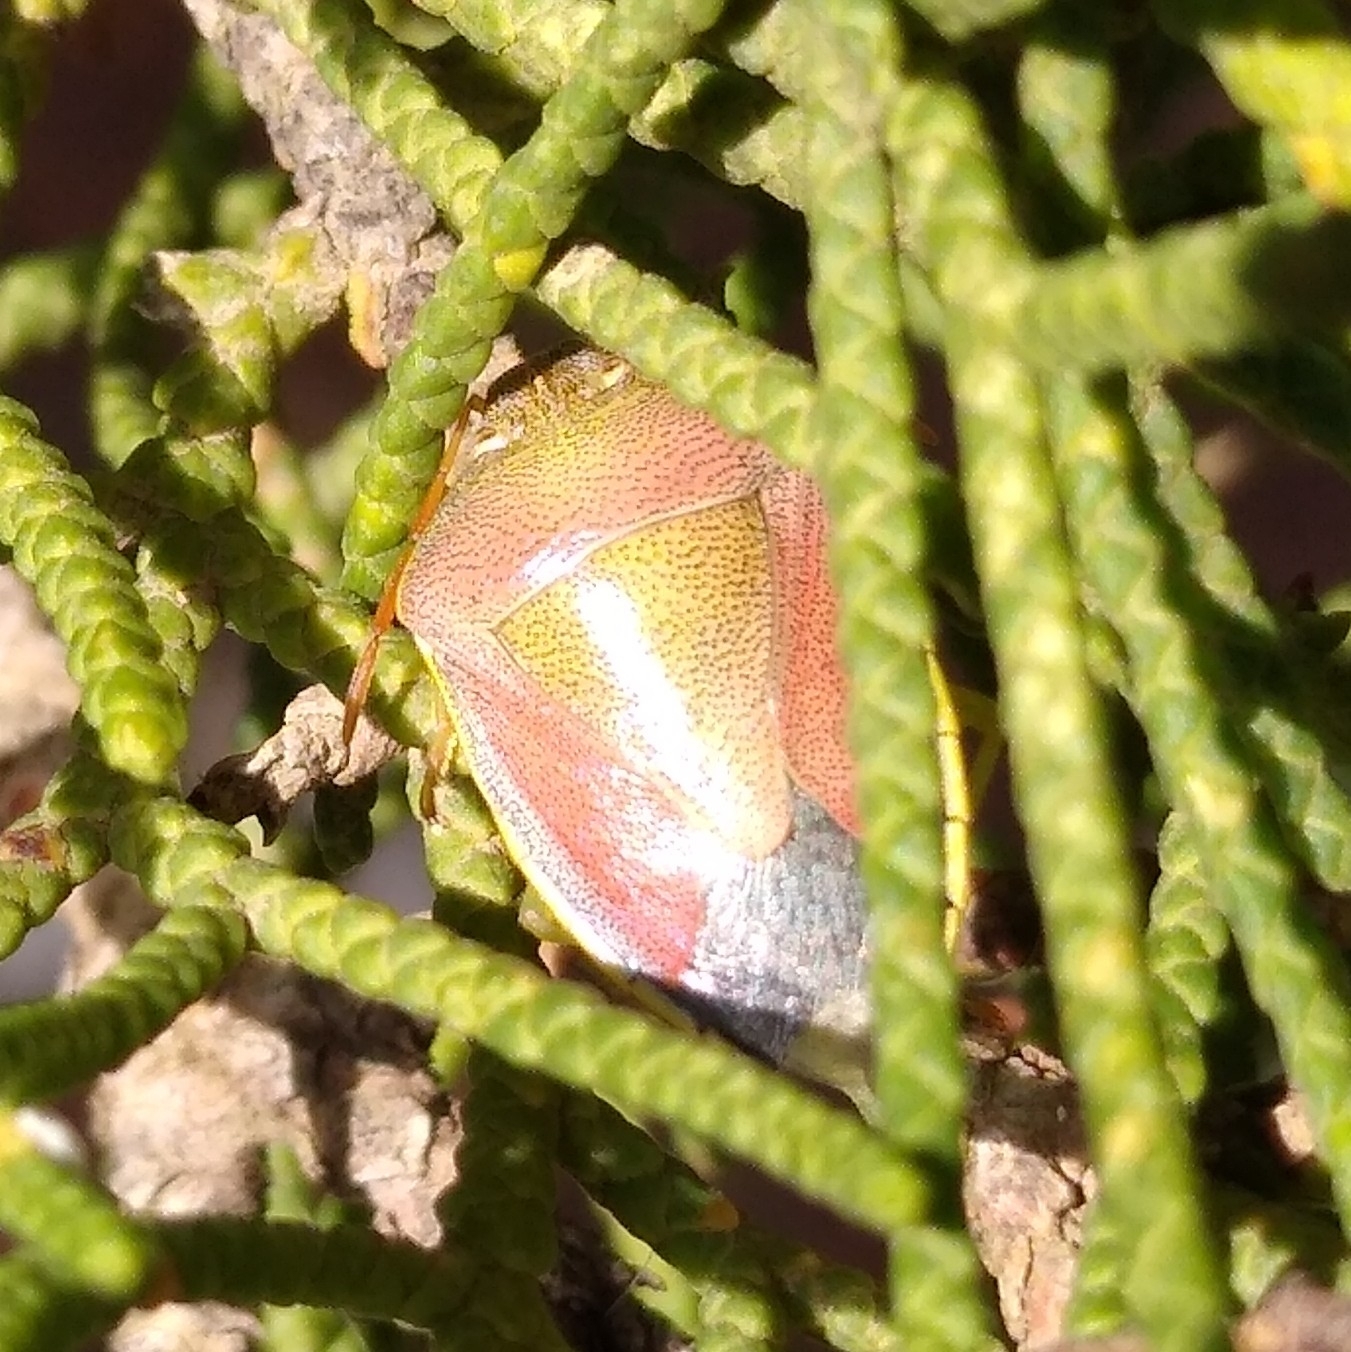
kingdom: Animalia
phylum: Arthropoda
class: Insecta
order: Hemiptera
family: Pentatomidae
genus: Piezodorus
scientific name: Piezodorus lituratus
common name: Stink bug
